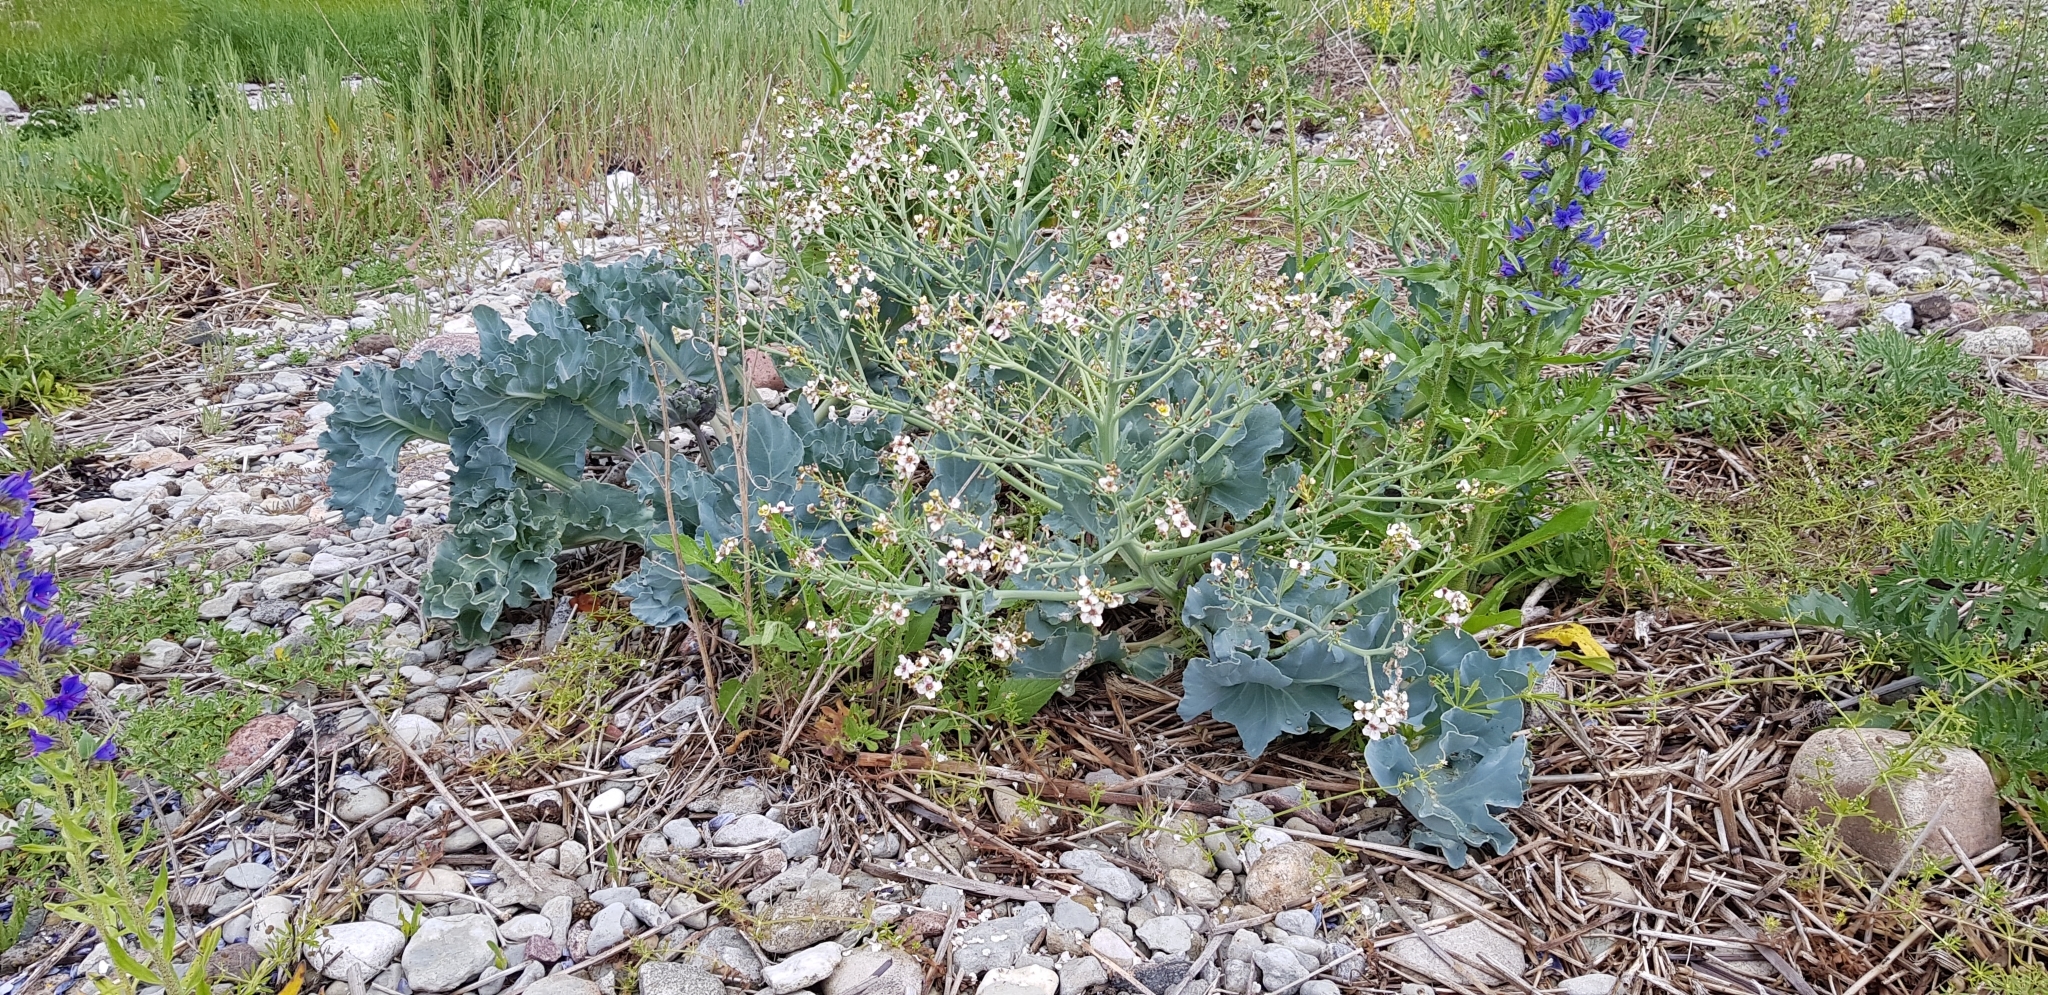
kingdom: Plantae
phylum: Tracheophyta
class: Magnoliopsida
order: Brassicales
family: Brassicaceae
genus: Crambe
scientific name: Crambe maritima
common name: Sea-kale
